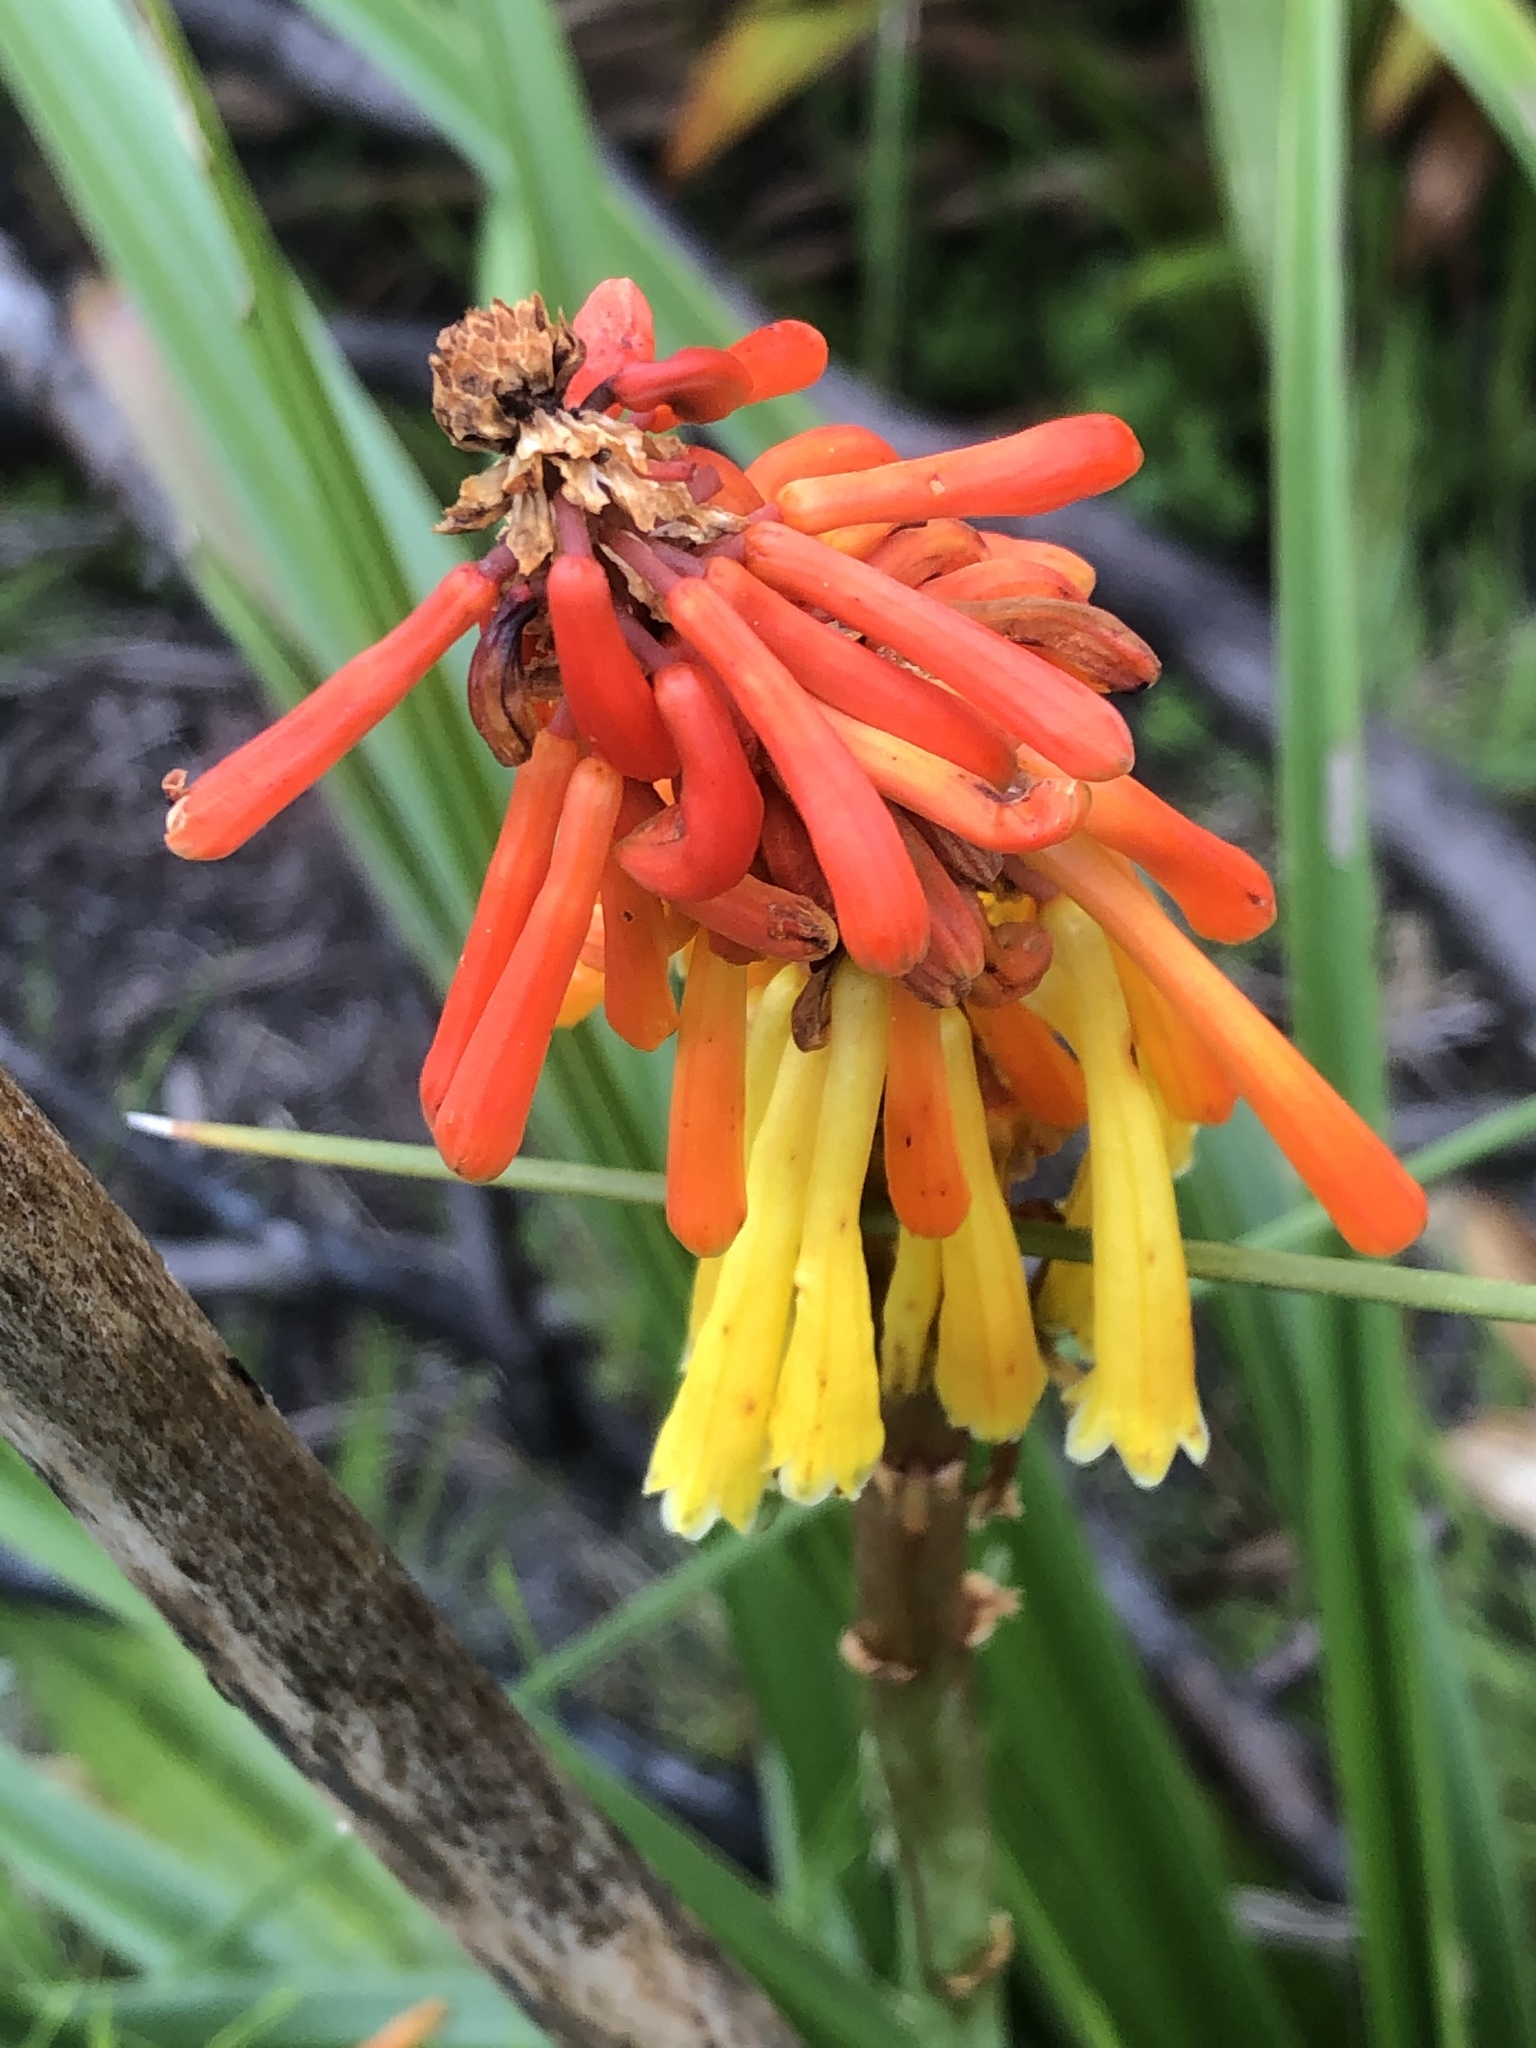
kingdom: Plantae
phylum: Tracheophyta
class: Liliopsida
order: Asparagales
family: Asphodelaceae
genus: Kniphofia
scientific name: Kniphofia uvaria
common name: Red-hot-poker
